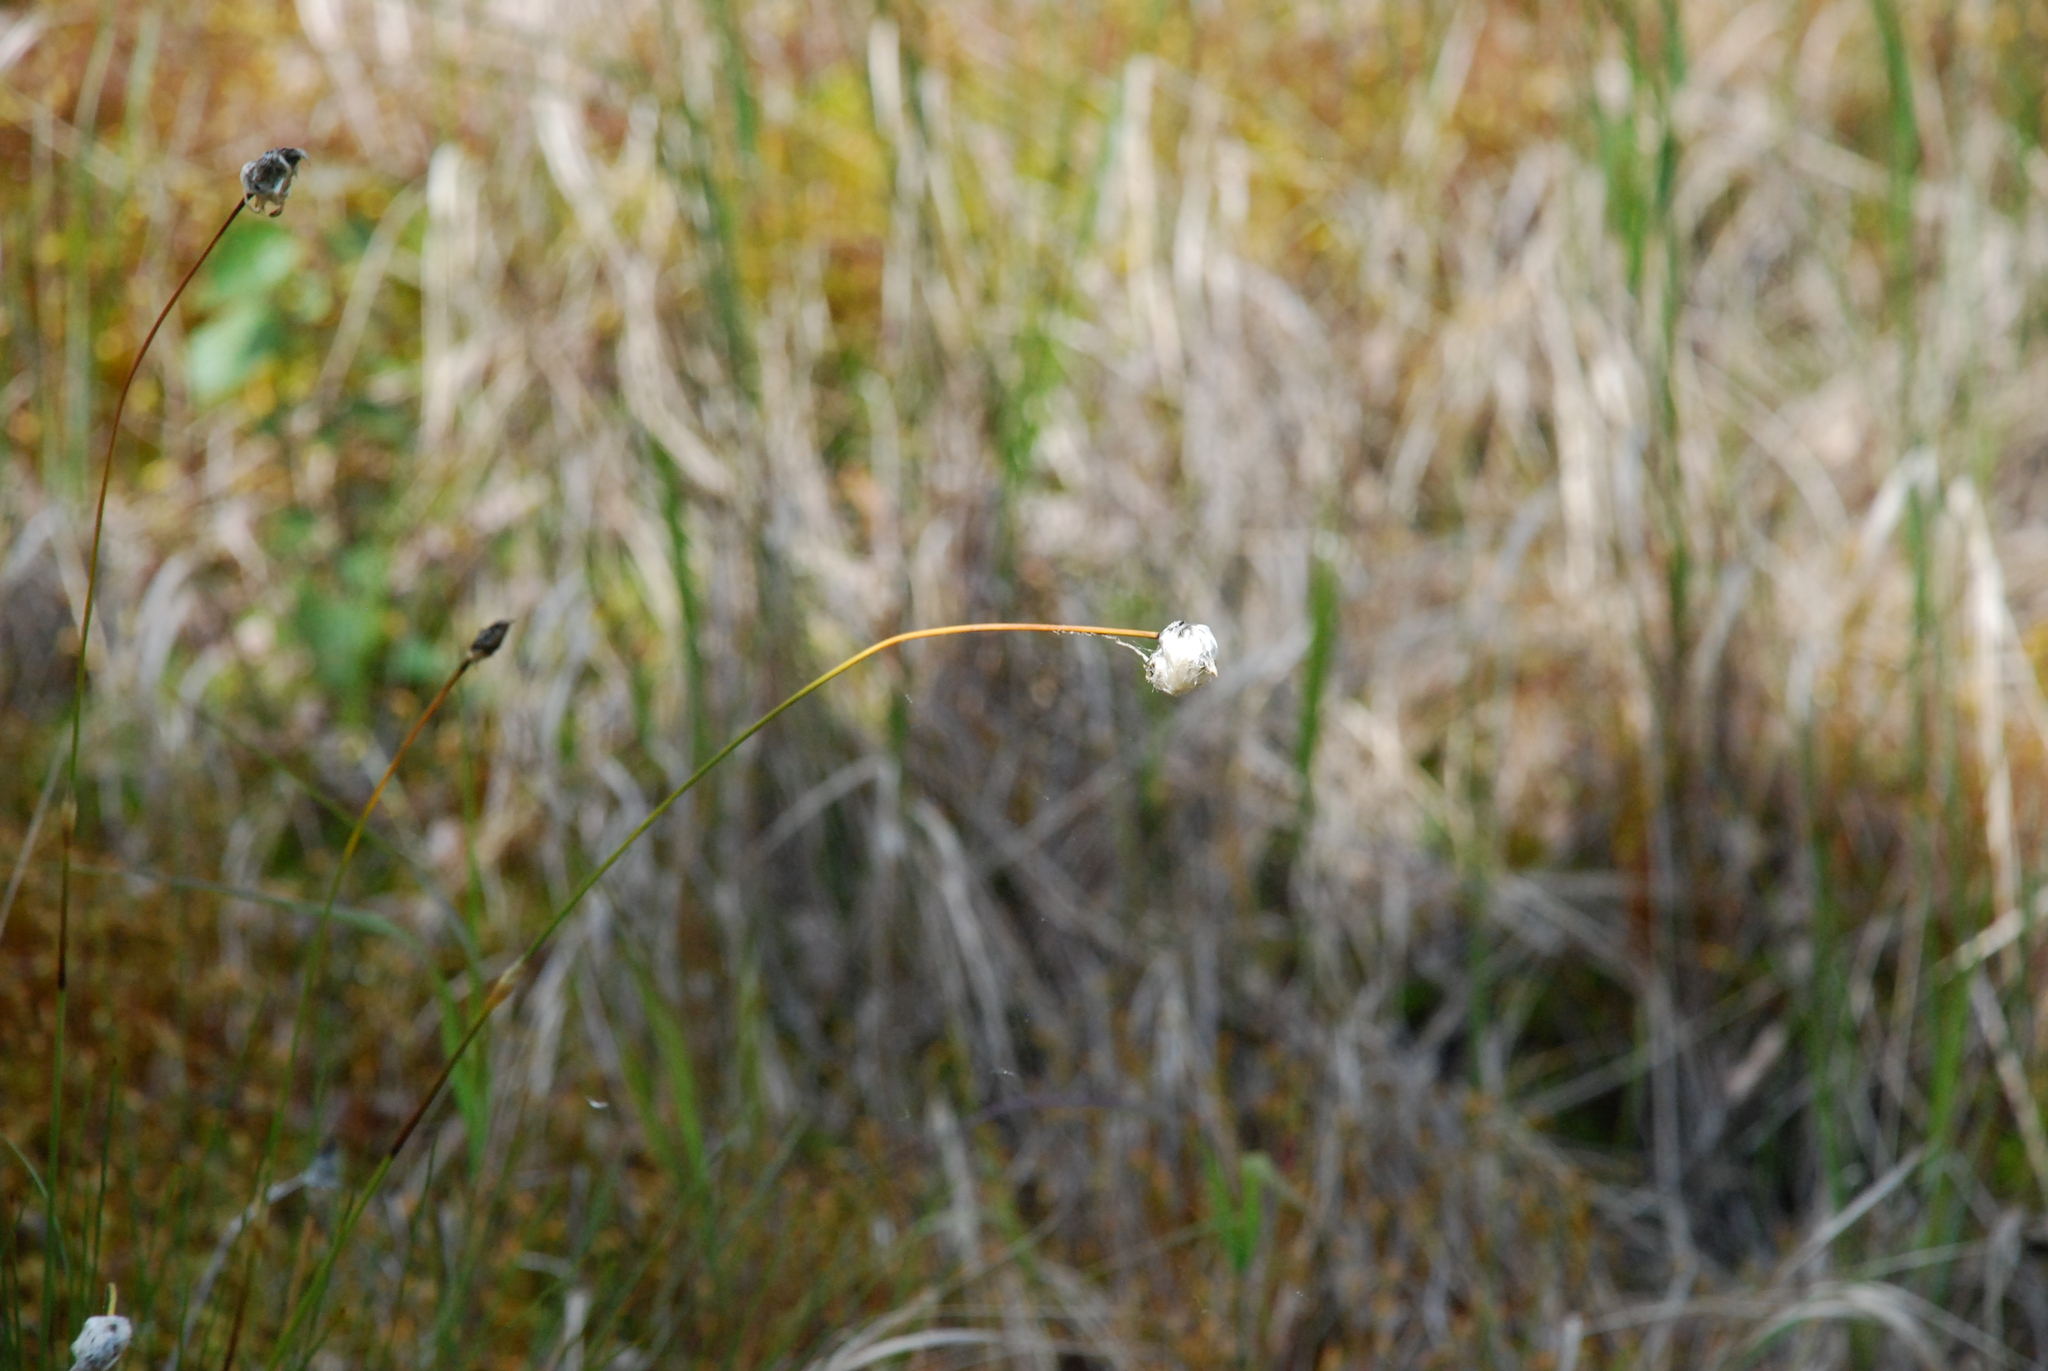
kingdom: Plantae
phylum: Tracheophyta
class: Liliopsida
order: Poales
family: Cyperaceae
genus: Eriophorum
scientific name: Eriophorum vaginatum
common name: Hare's-tail cottongrass
